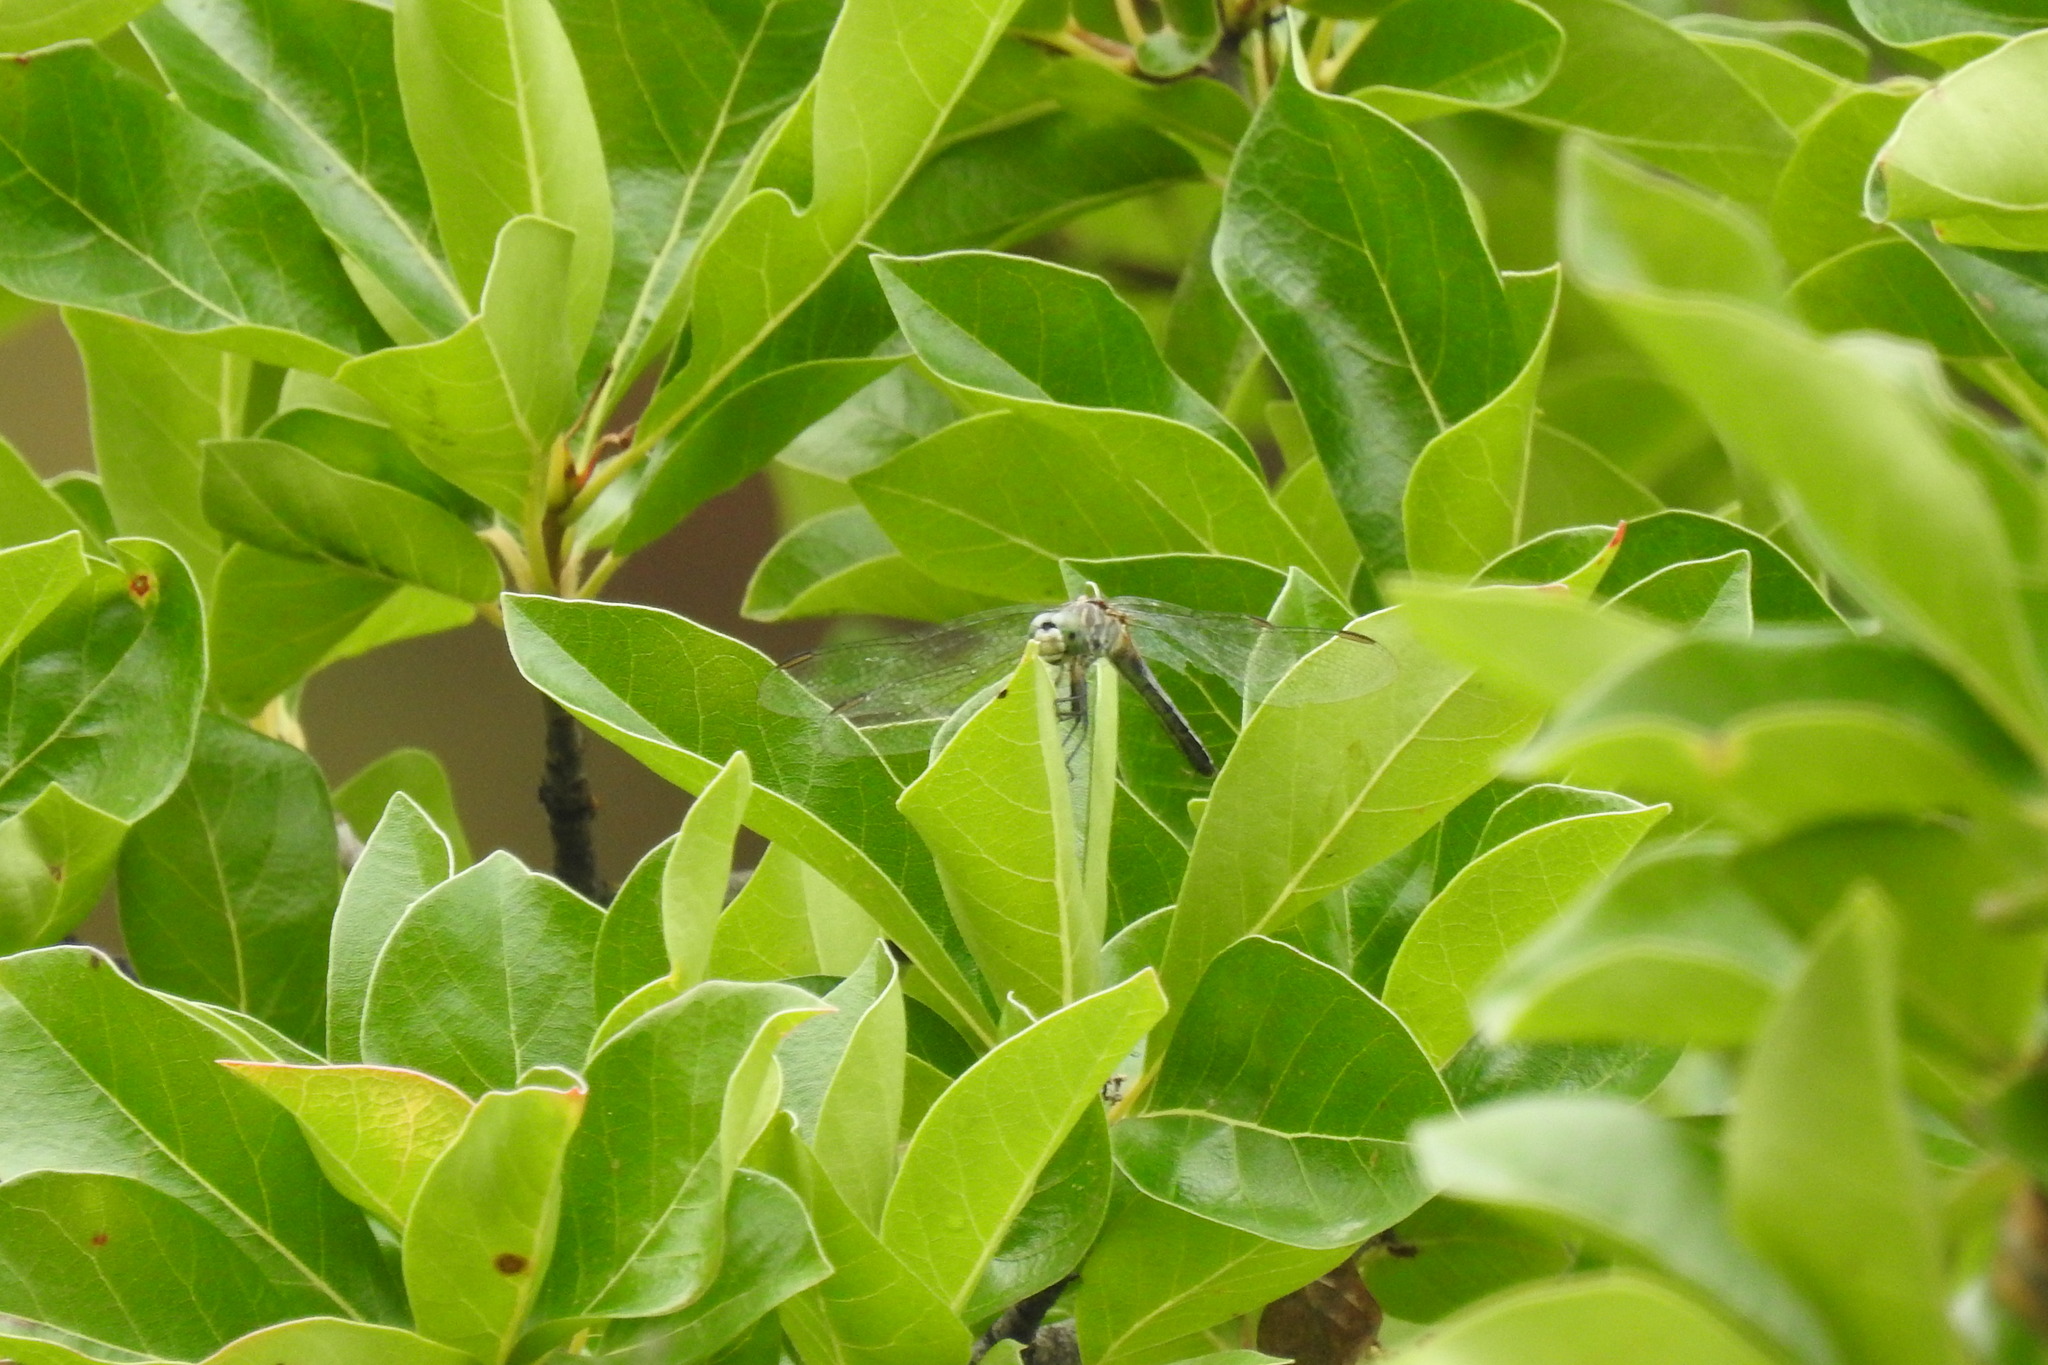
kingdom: Animalia
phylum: Arthropoda
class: Insecta
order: Odonata
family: Libellulidae
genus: Pachydiplax
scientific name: Pachydiplax longipennis
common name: Blue dasher
